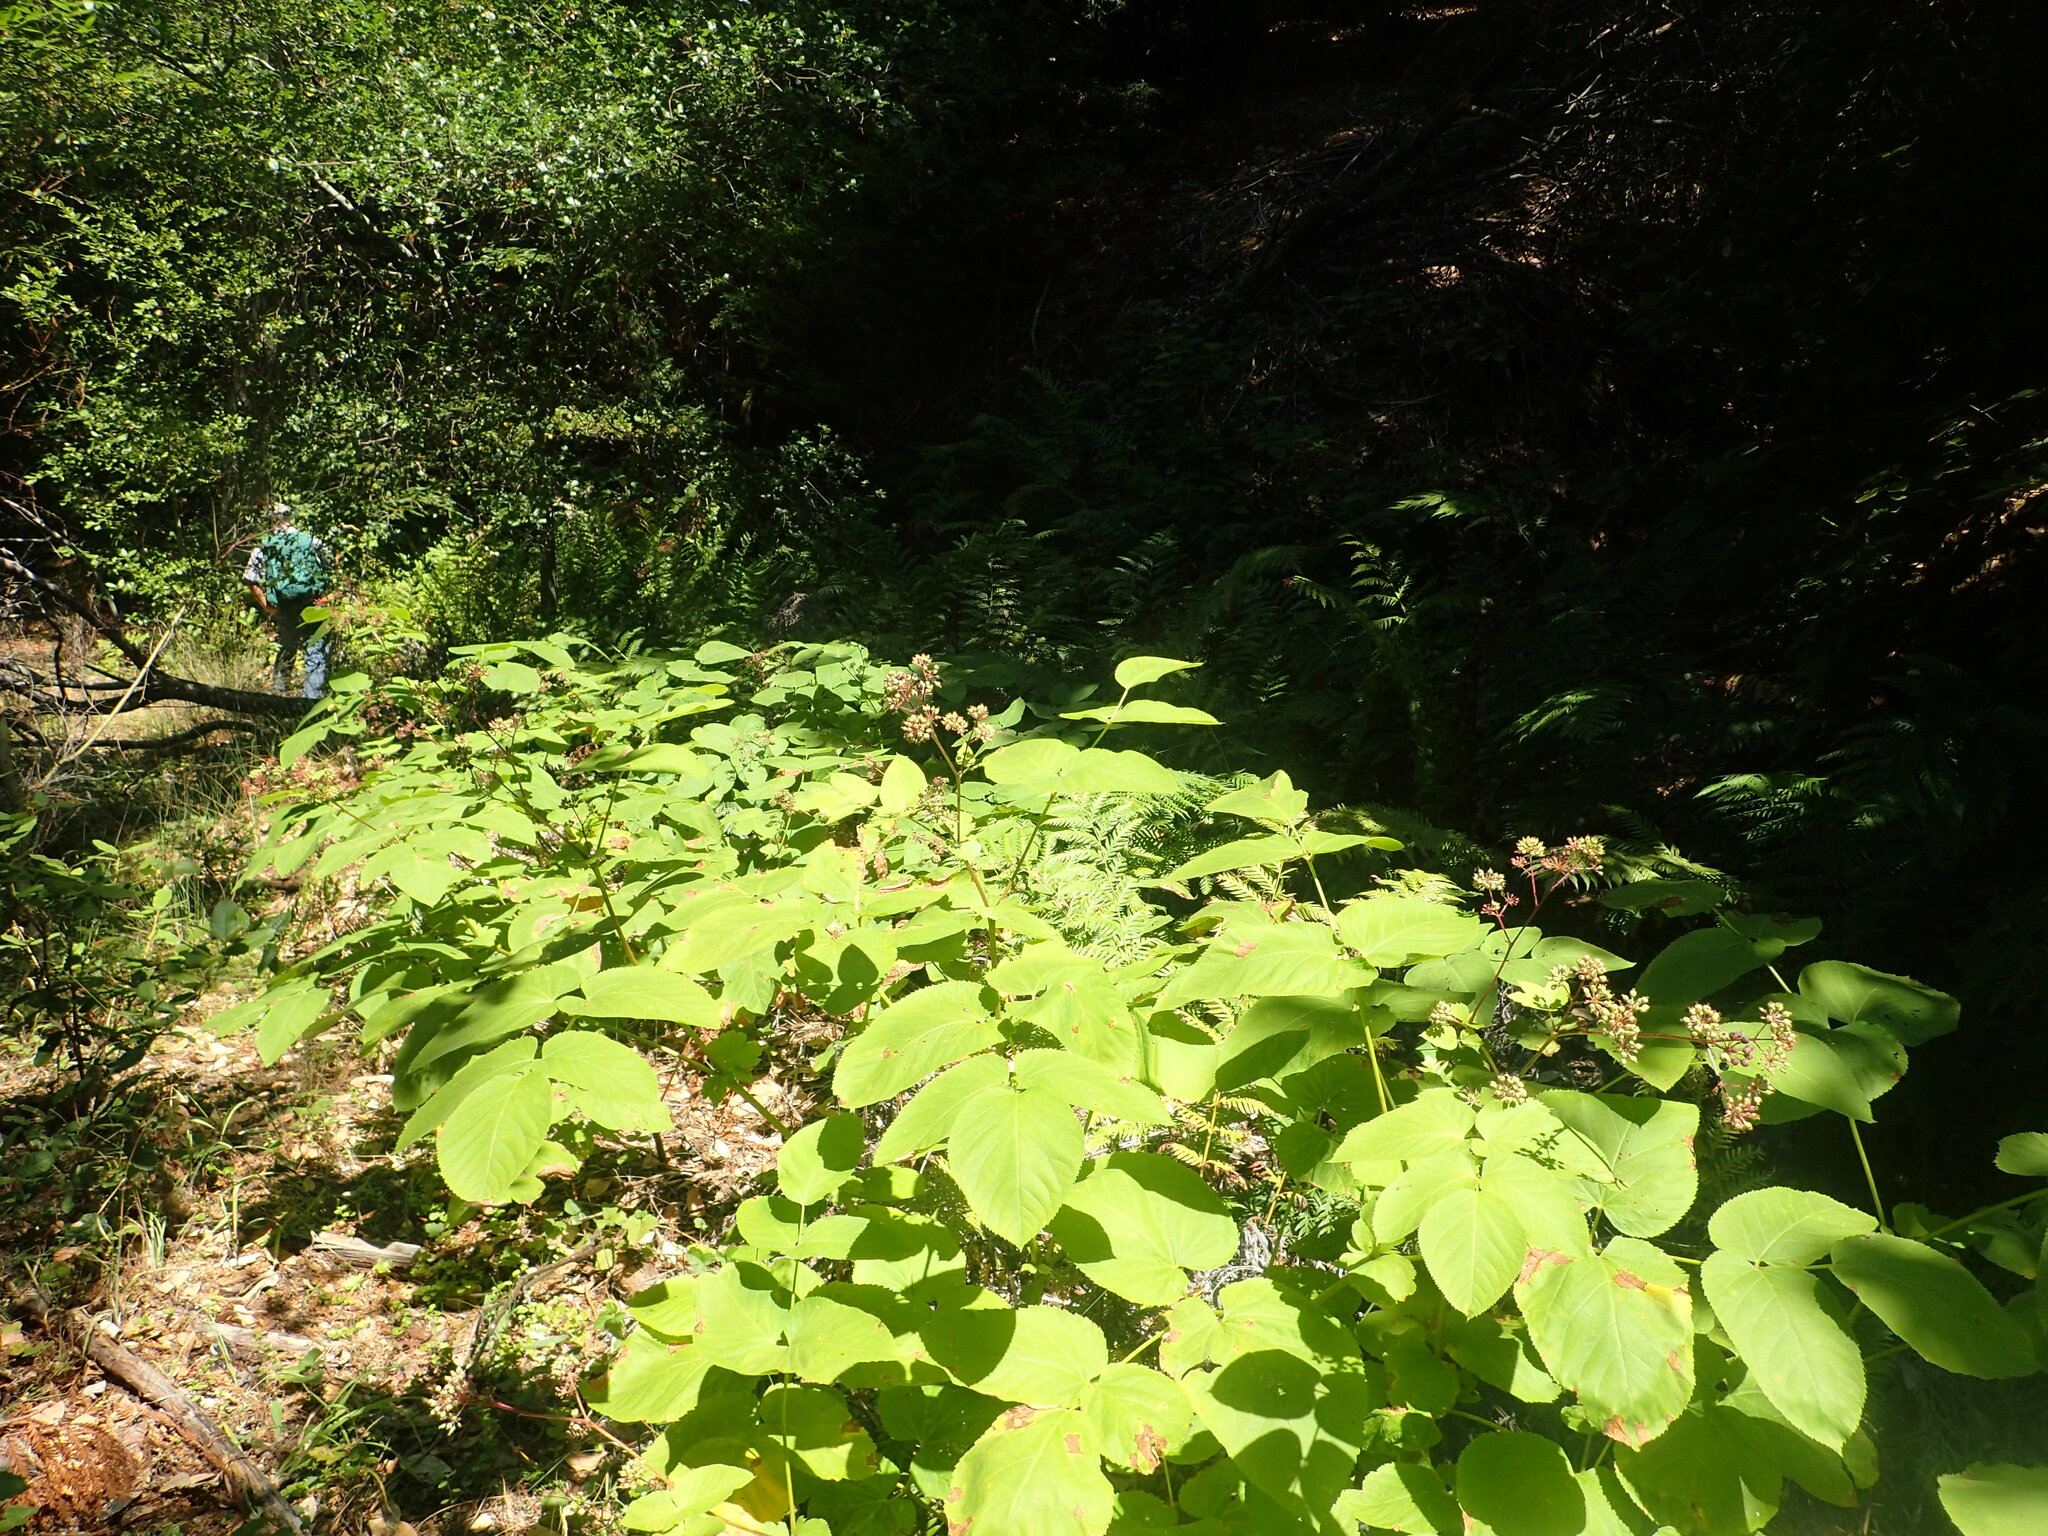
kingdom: Plantae
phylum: Tracheophyta
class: Magnoliopsida
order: Apiales
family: Araliaceae
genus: Aralia
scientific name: Aralia californica
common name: California-ginseng
